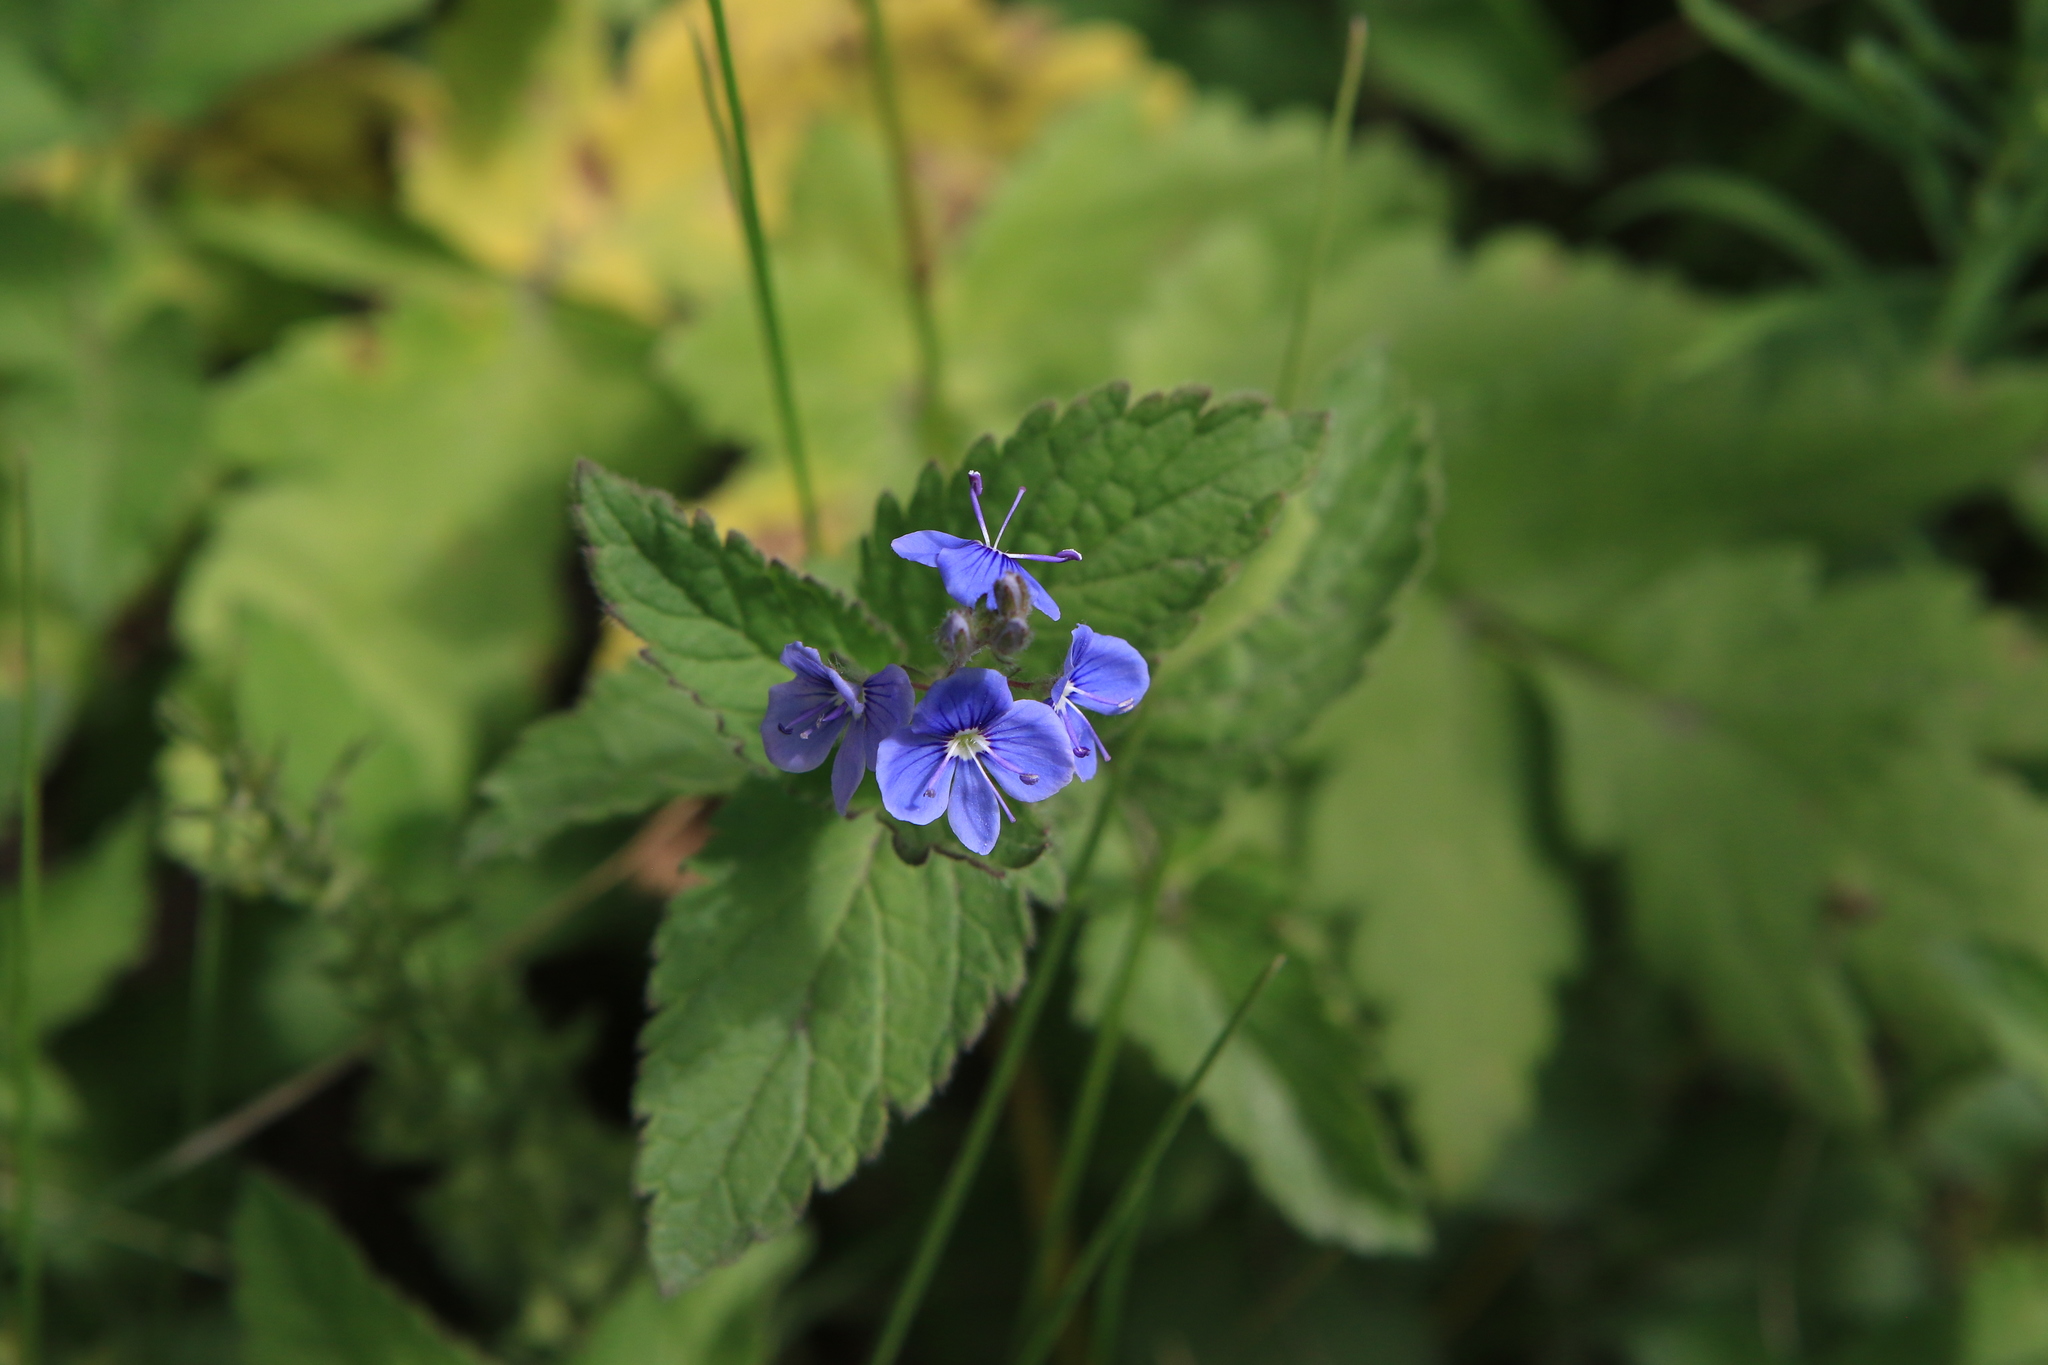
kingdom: Plantae
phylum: Tracheophyta
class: Magnoliopsida
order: Lamiales
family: Plantaginaceae
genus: Veronica
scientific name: Veronica chamaedrys
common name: Germander speedwell
